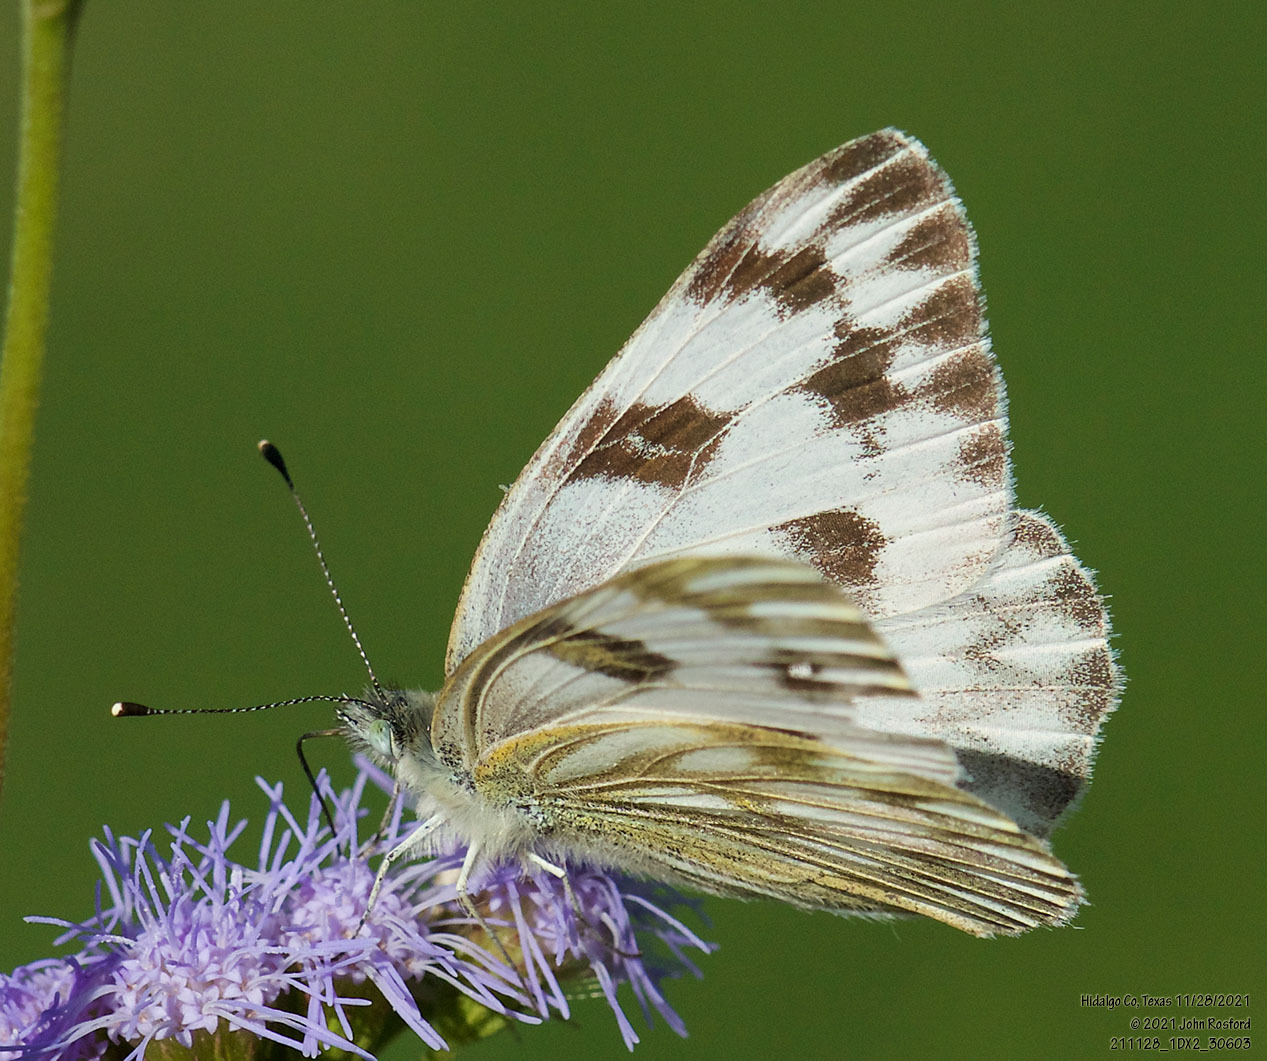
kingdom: Animalia
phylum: Arthropoda
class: Insecta
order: Lepidoptera
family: Pieridae
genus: Pontia
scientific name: Pontia protodice
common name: Checkered white
